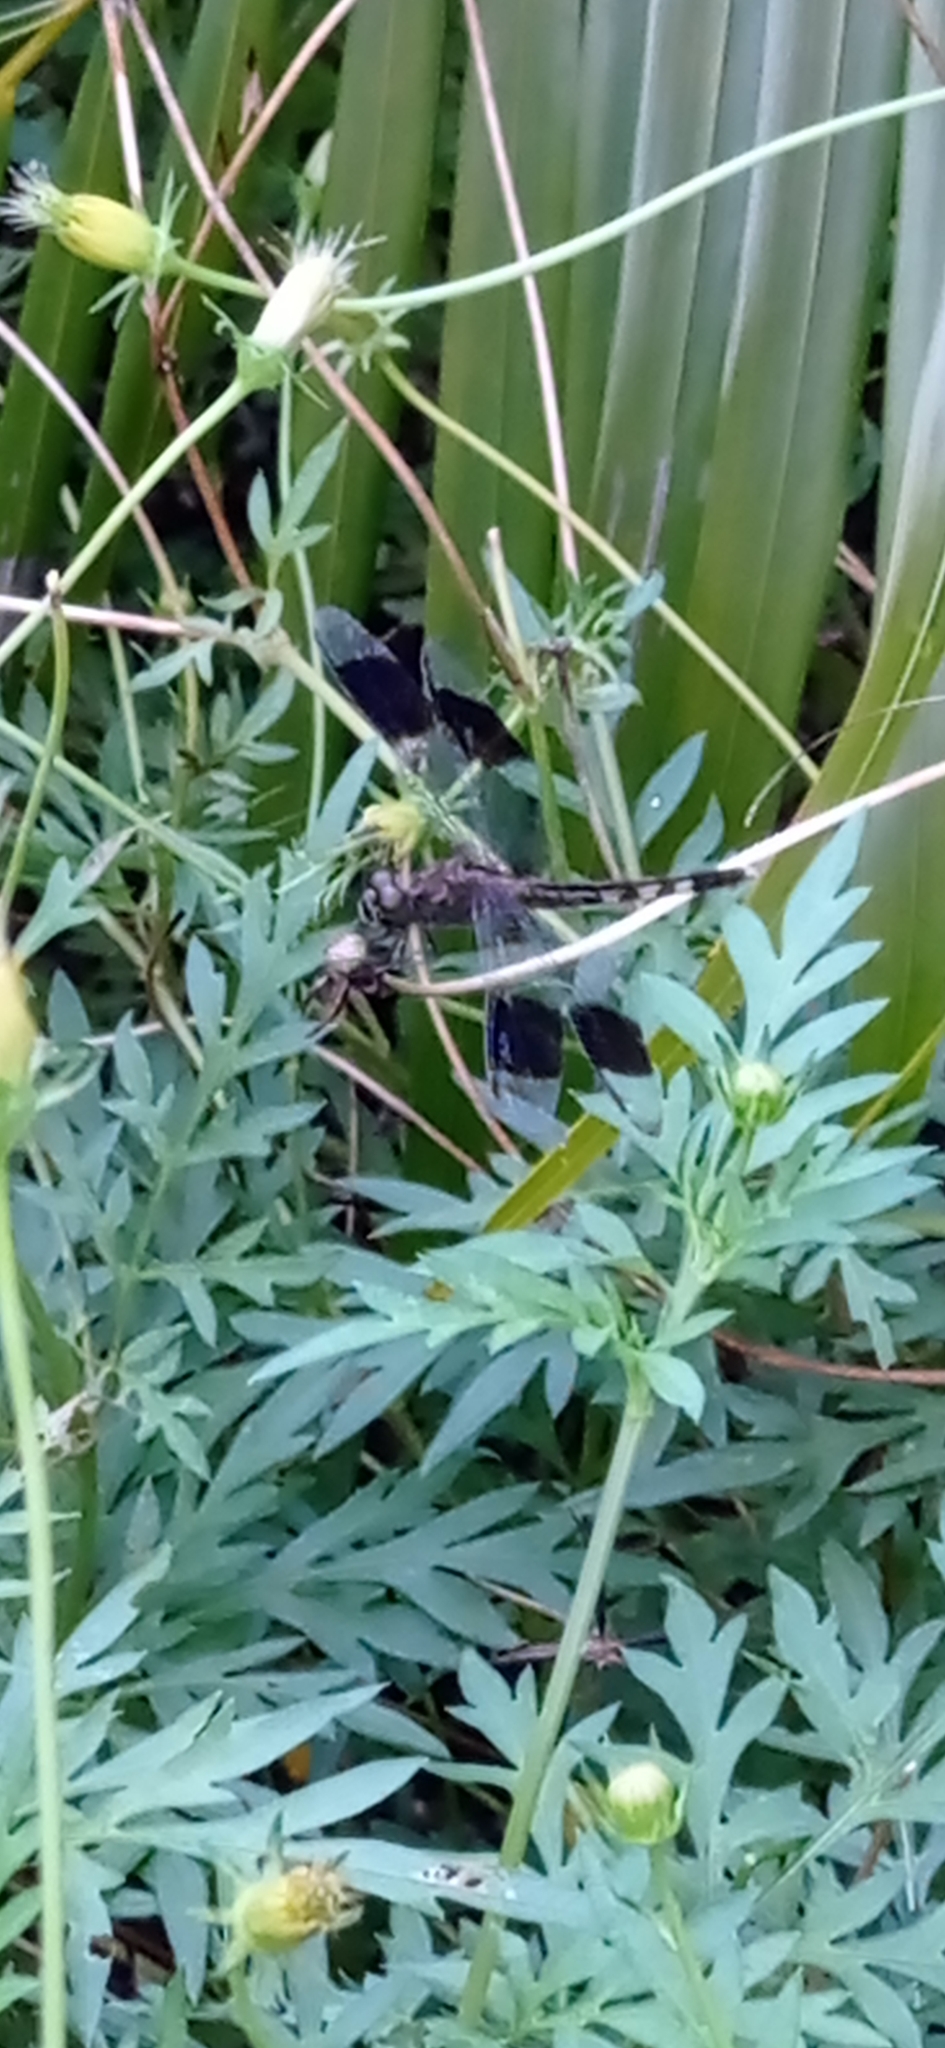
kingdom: Animalia
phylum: Arthropoda
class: Insecta
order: Odonata
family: Libellulidae
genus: Erythrodiplax
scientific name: Erythrodiplax umbrata
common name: Band-winged dragonlet
